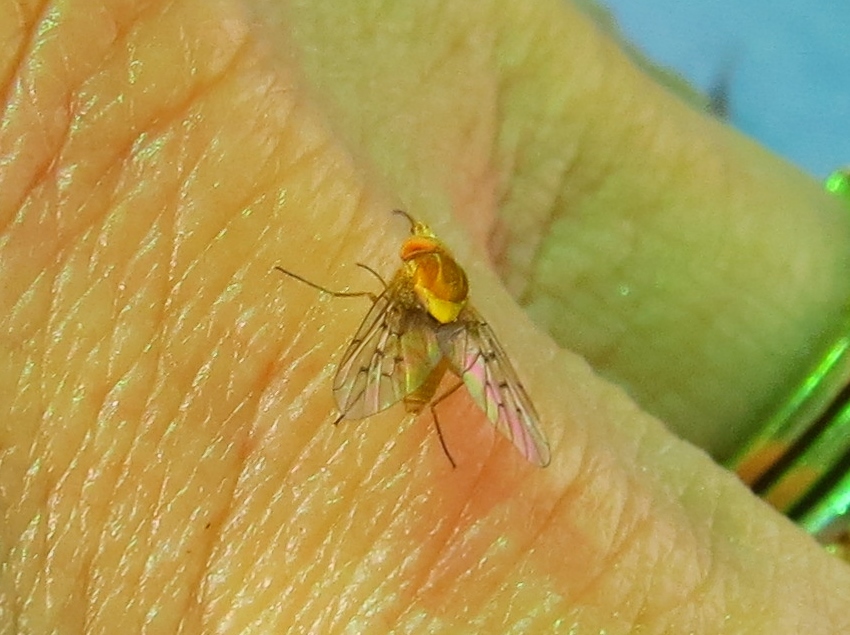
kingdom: Animalia
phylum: Arthropoda
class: Insecta
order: Diptera
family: Bombyliidae
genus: Poecilognathus
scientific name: Poecilognathus unimaculatus
